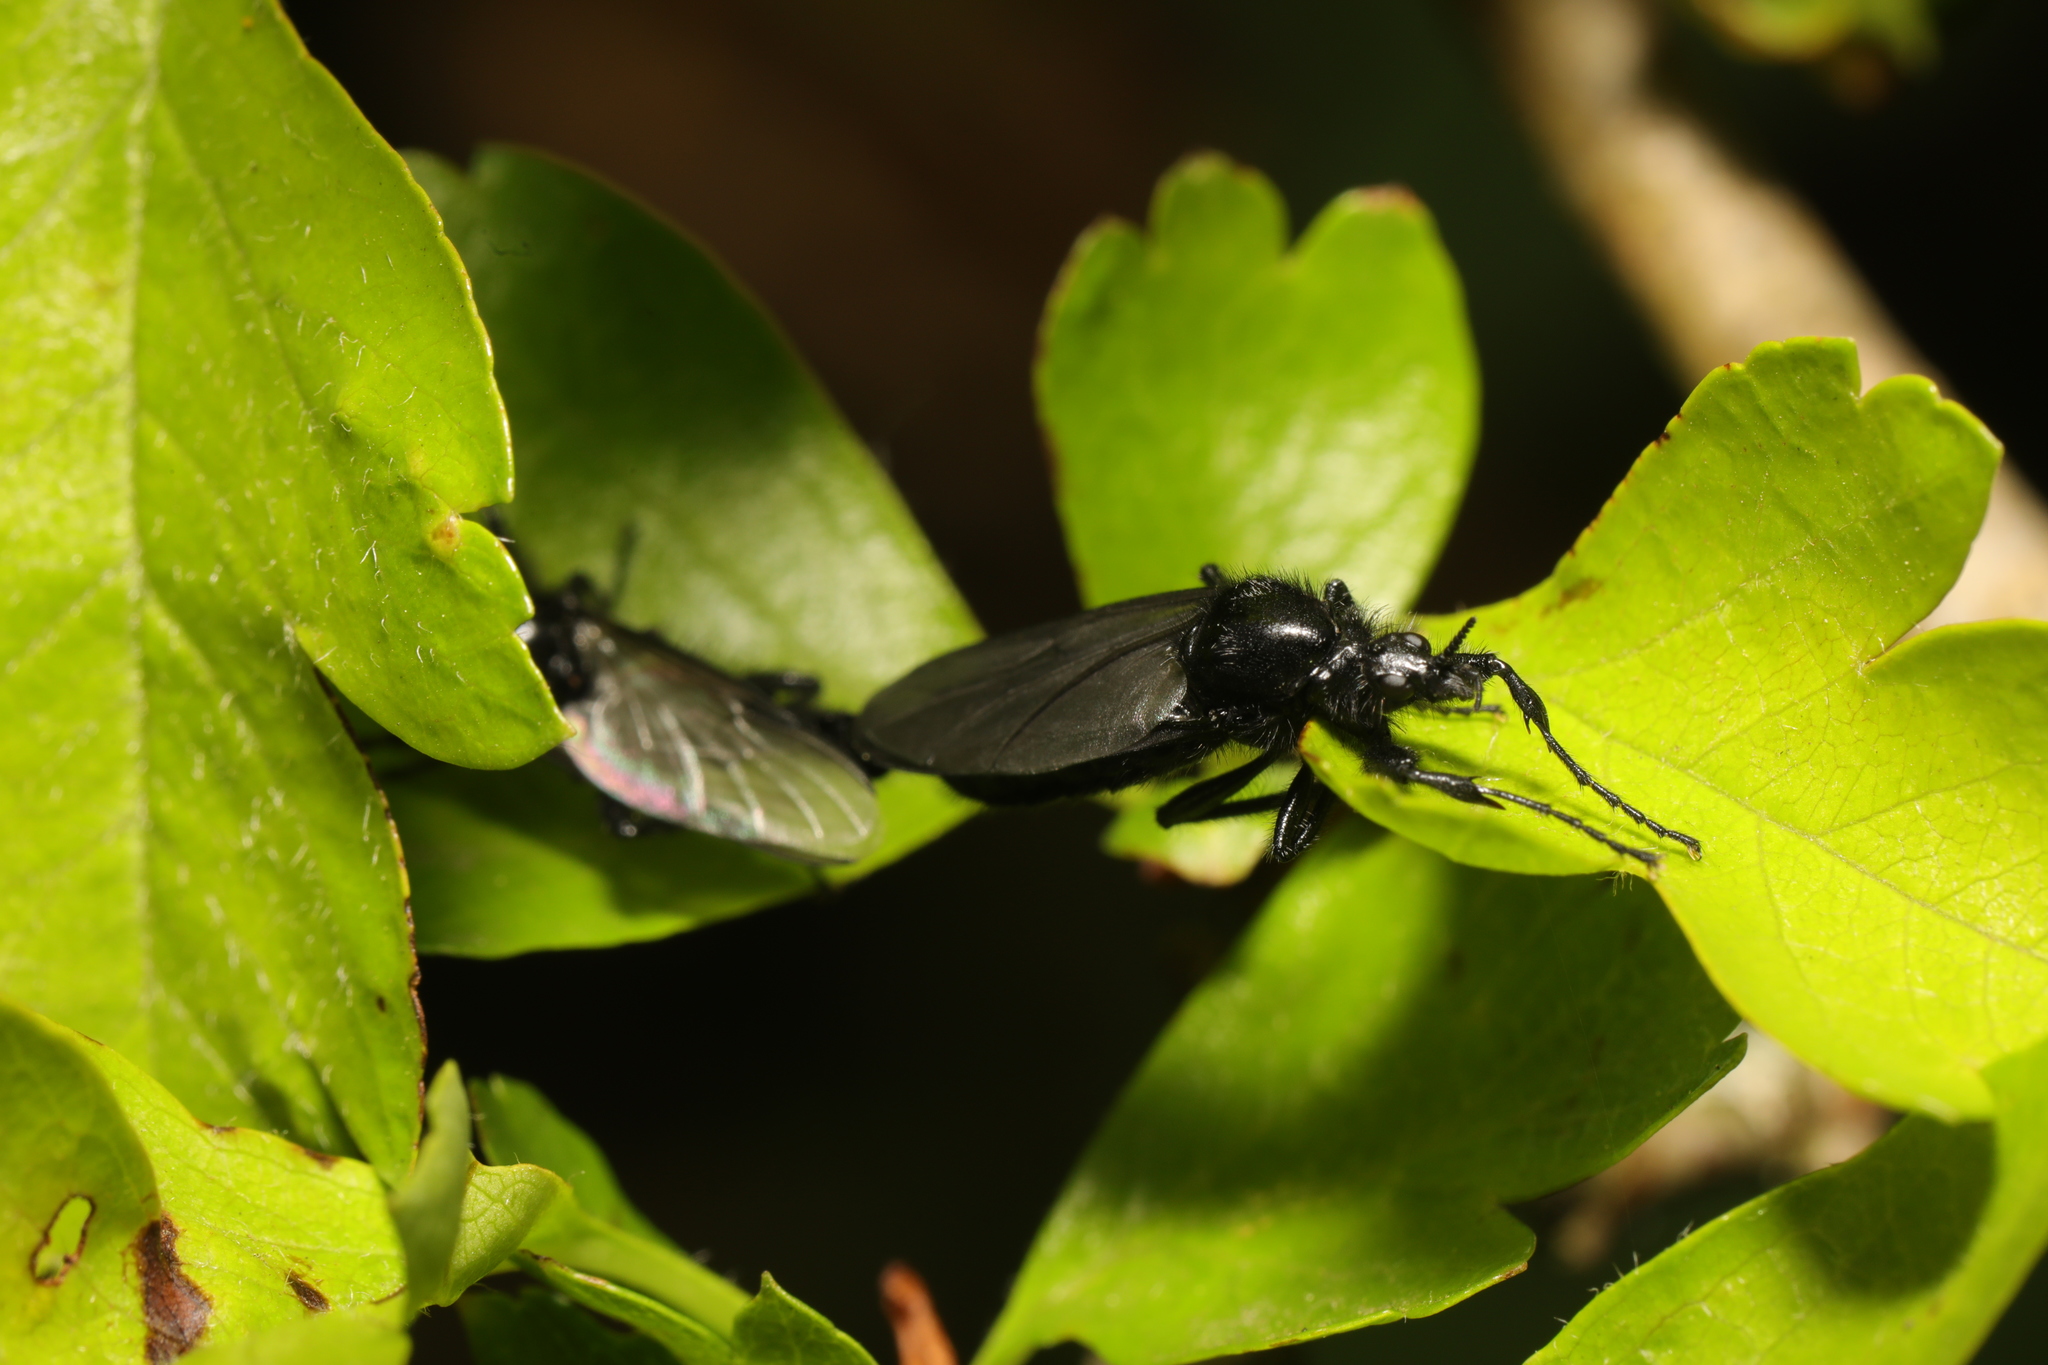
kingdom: Animalia
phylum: Arthropoda
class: Insecta
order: Diptera
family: Bibionidae
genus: Bibio
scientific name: Bibio marci
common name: St marks fly
